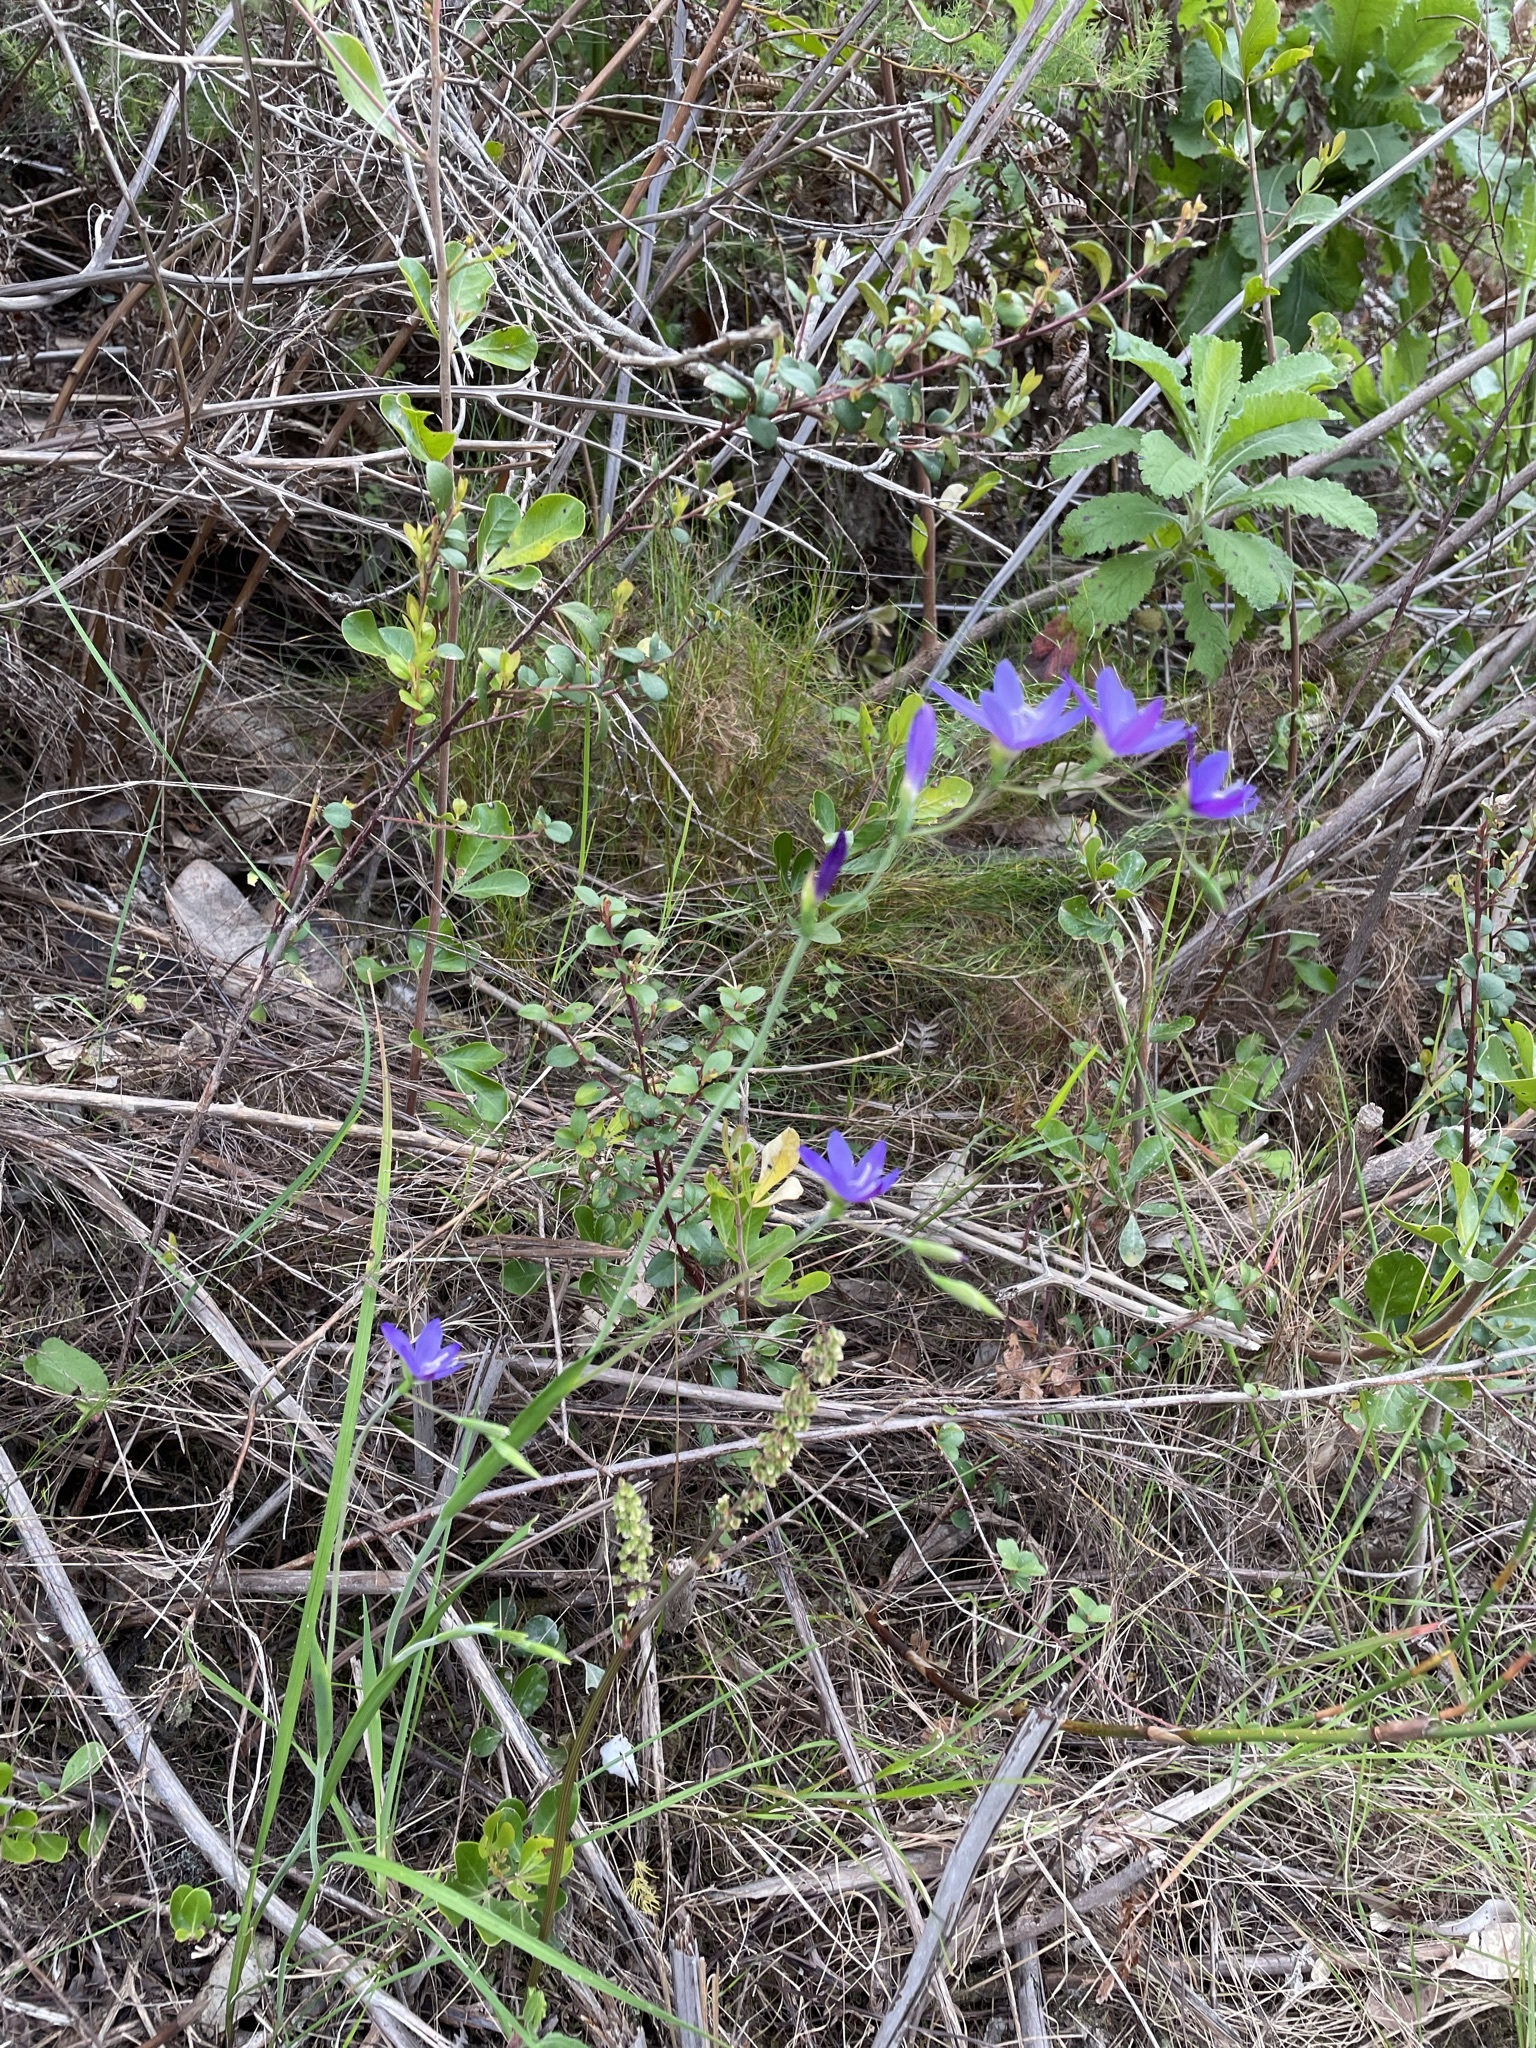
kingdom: Plantae
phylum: Tracheophyta
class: Liliopsida
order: Asparagales
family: Iridaceae
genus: Geissorhiza
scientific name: Geissorhiza aspera
